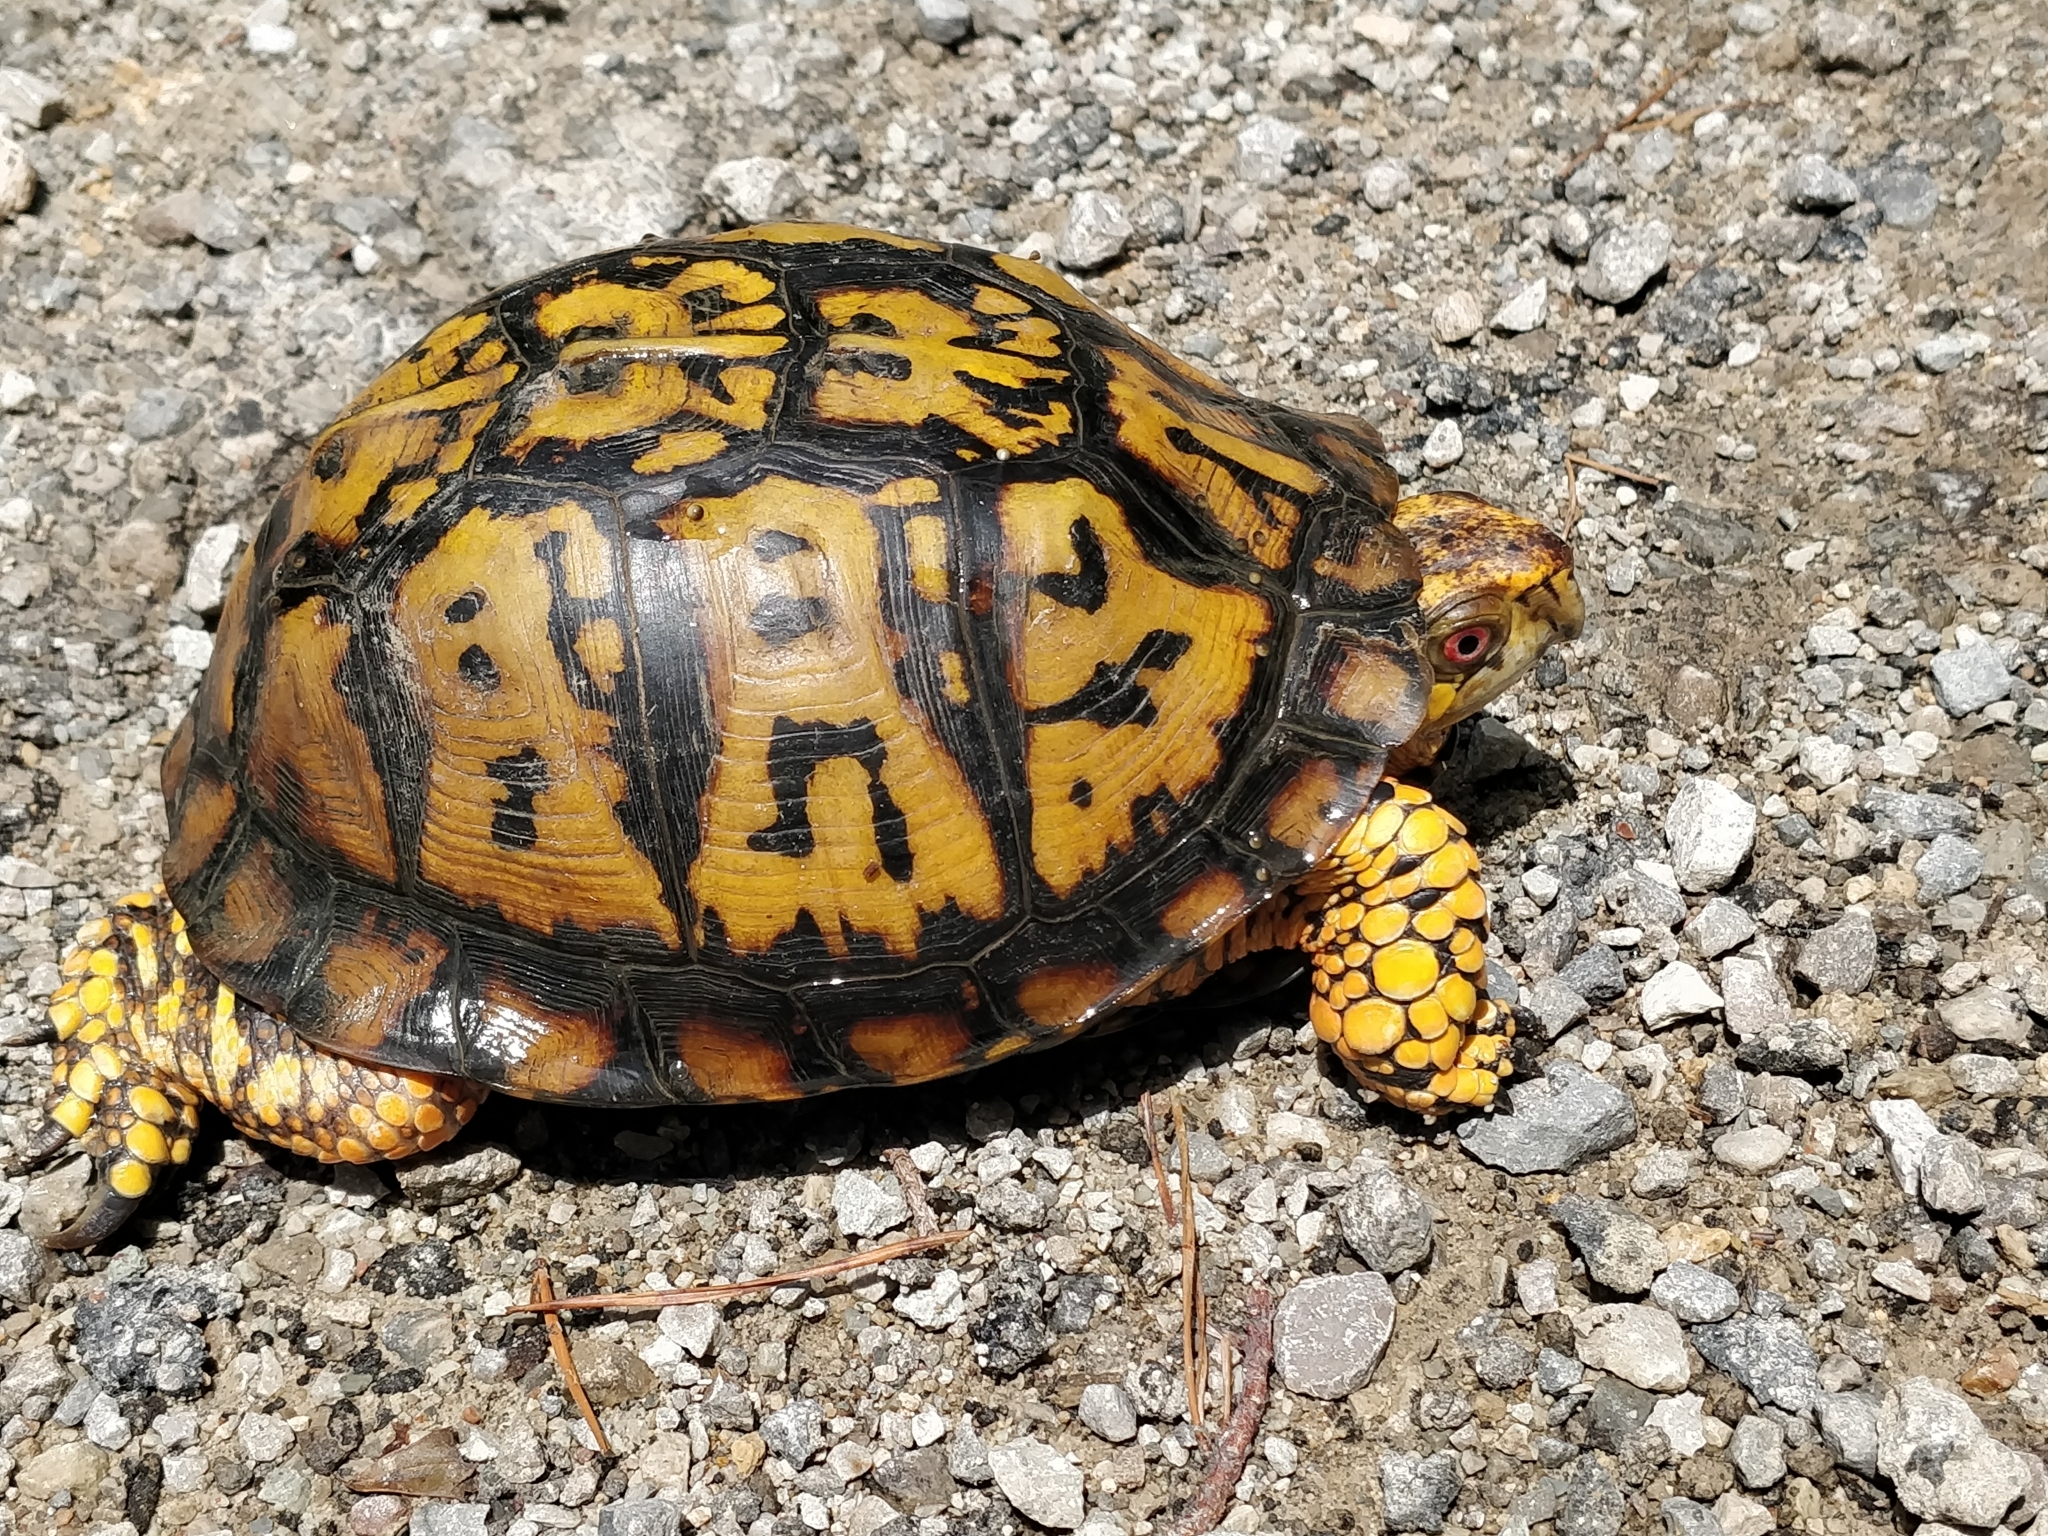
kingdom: Animalia
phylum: Chordata
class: Testudines
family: Emydidae
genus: Terrapene
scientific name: Terrapene carolina
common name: Common box turtle
